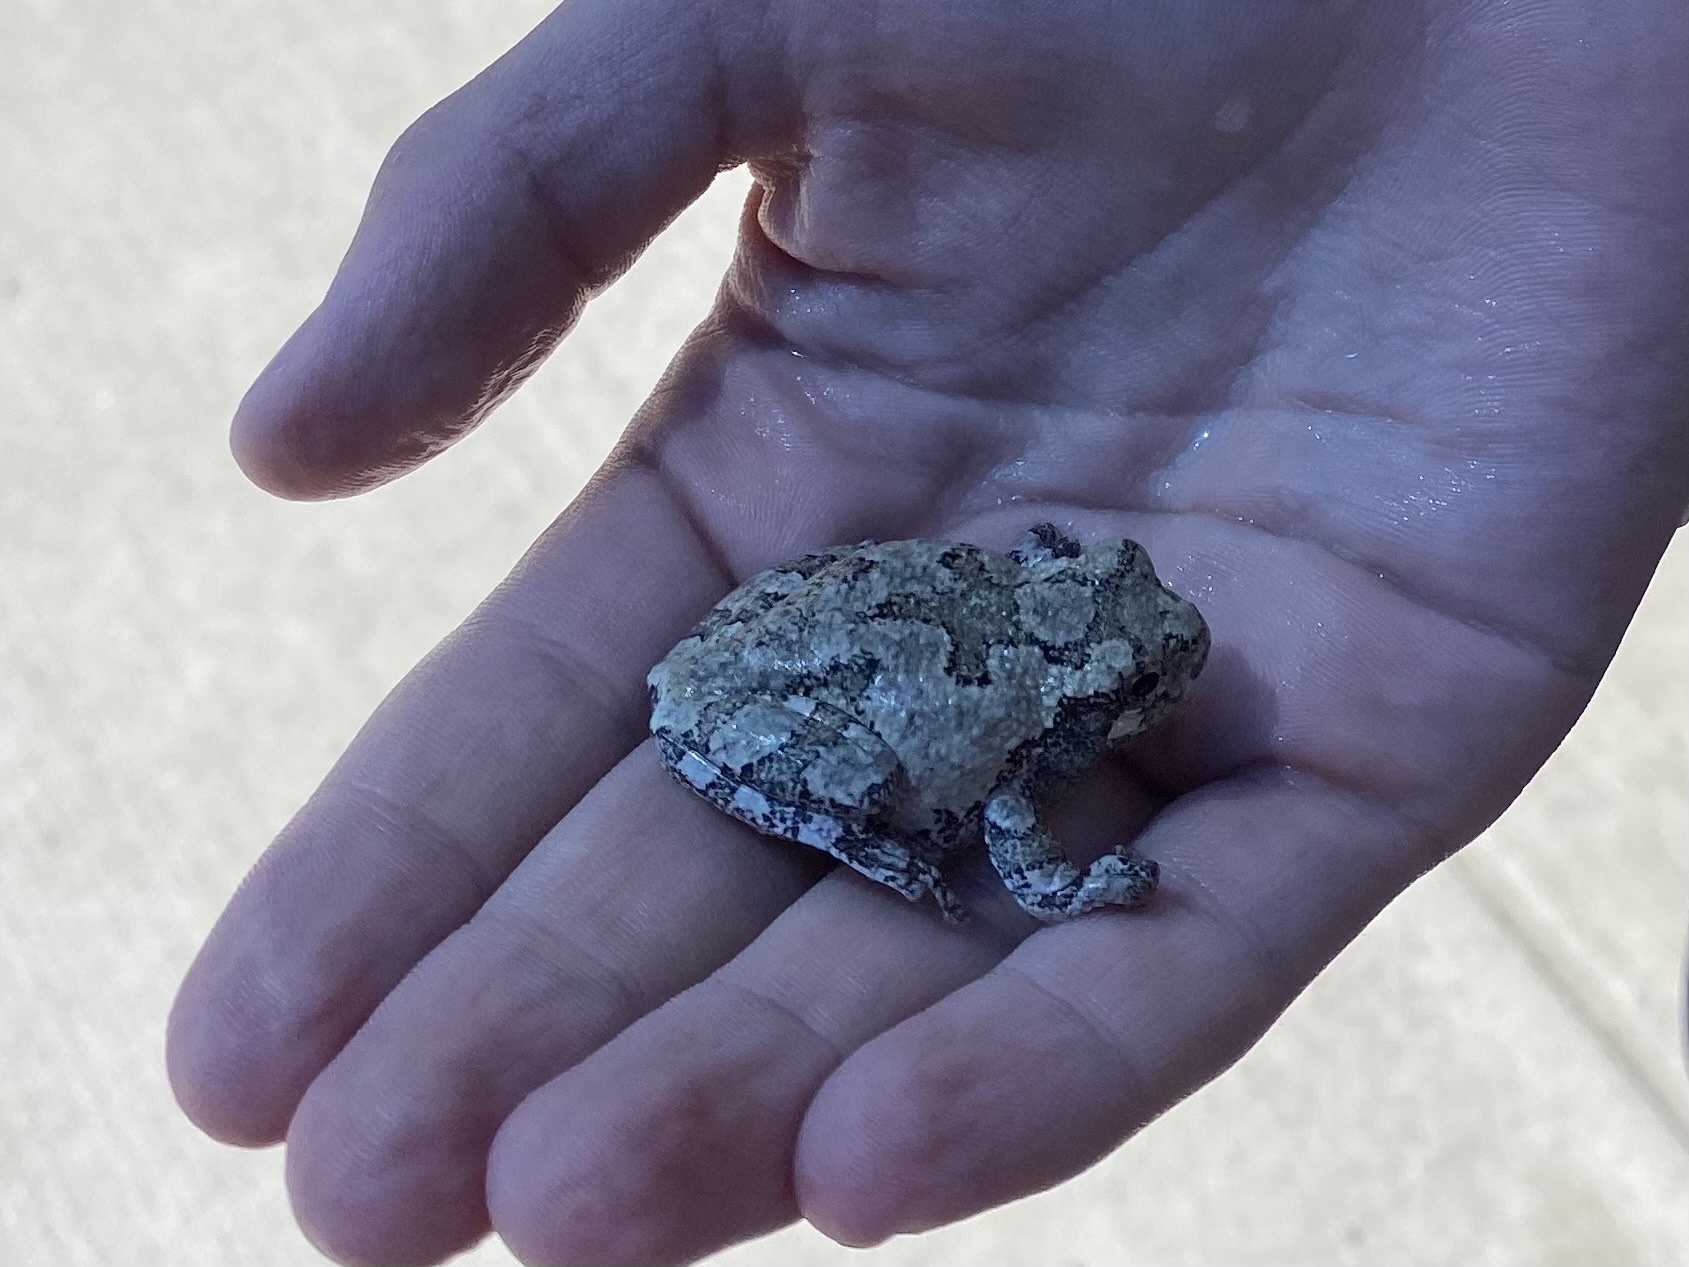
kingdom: Animalia
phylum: Chordata
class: Amphibia
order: Anura
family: Hylidae
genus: Hyla
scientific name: Hyla
